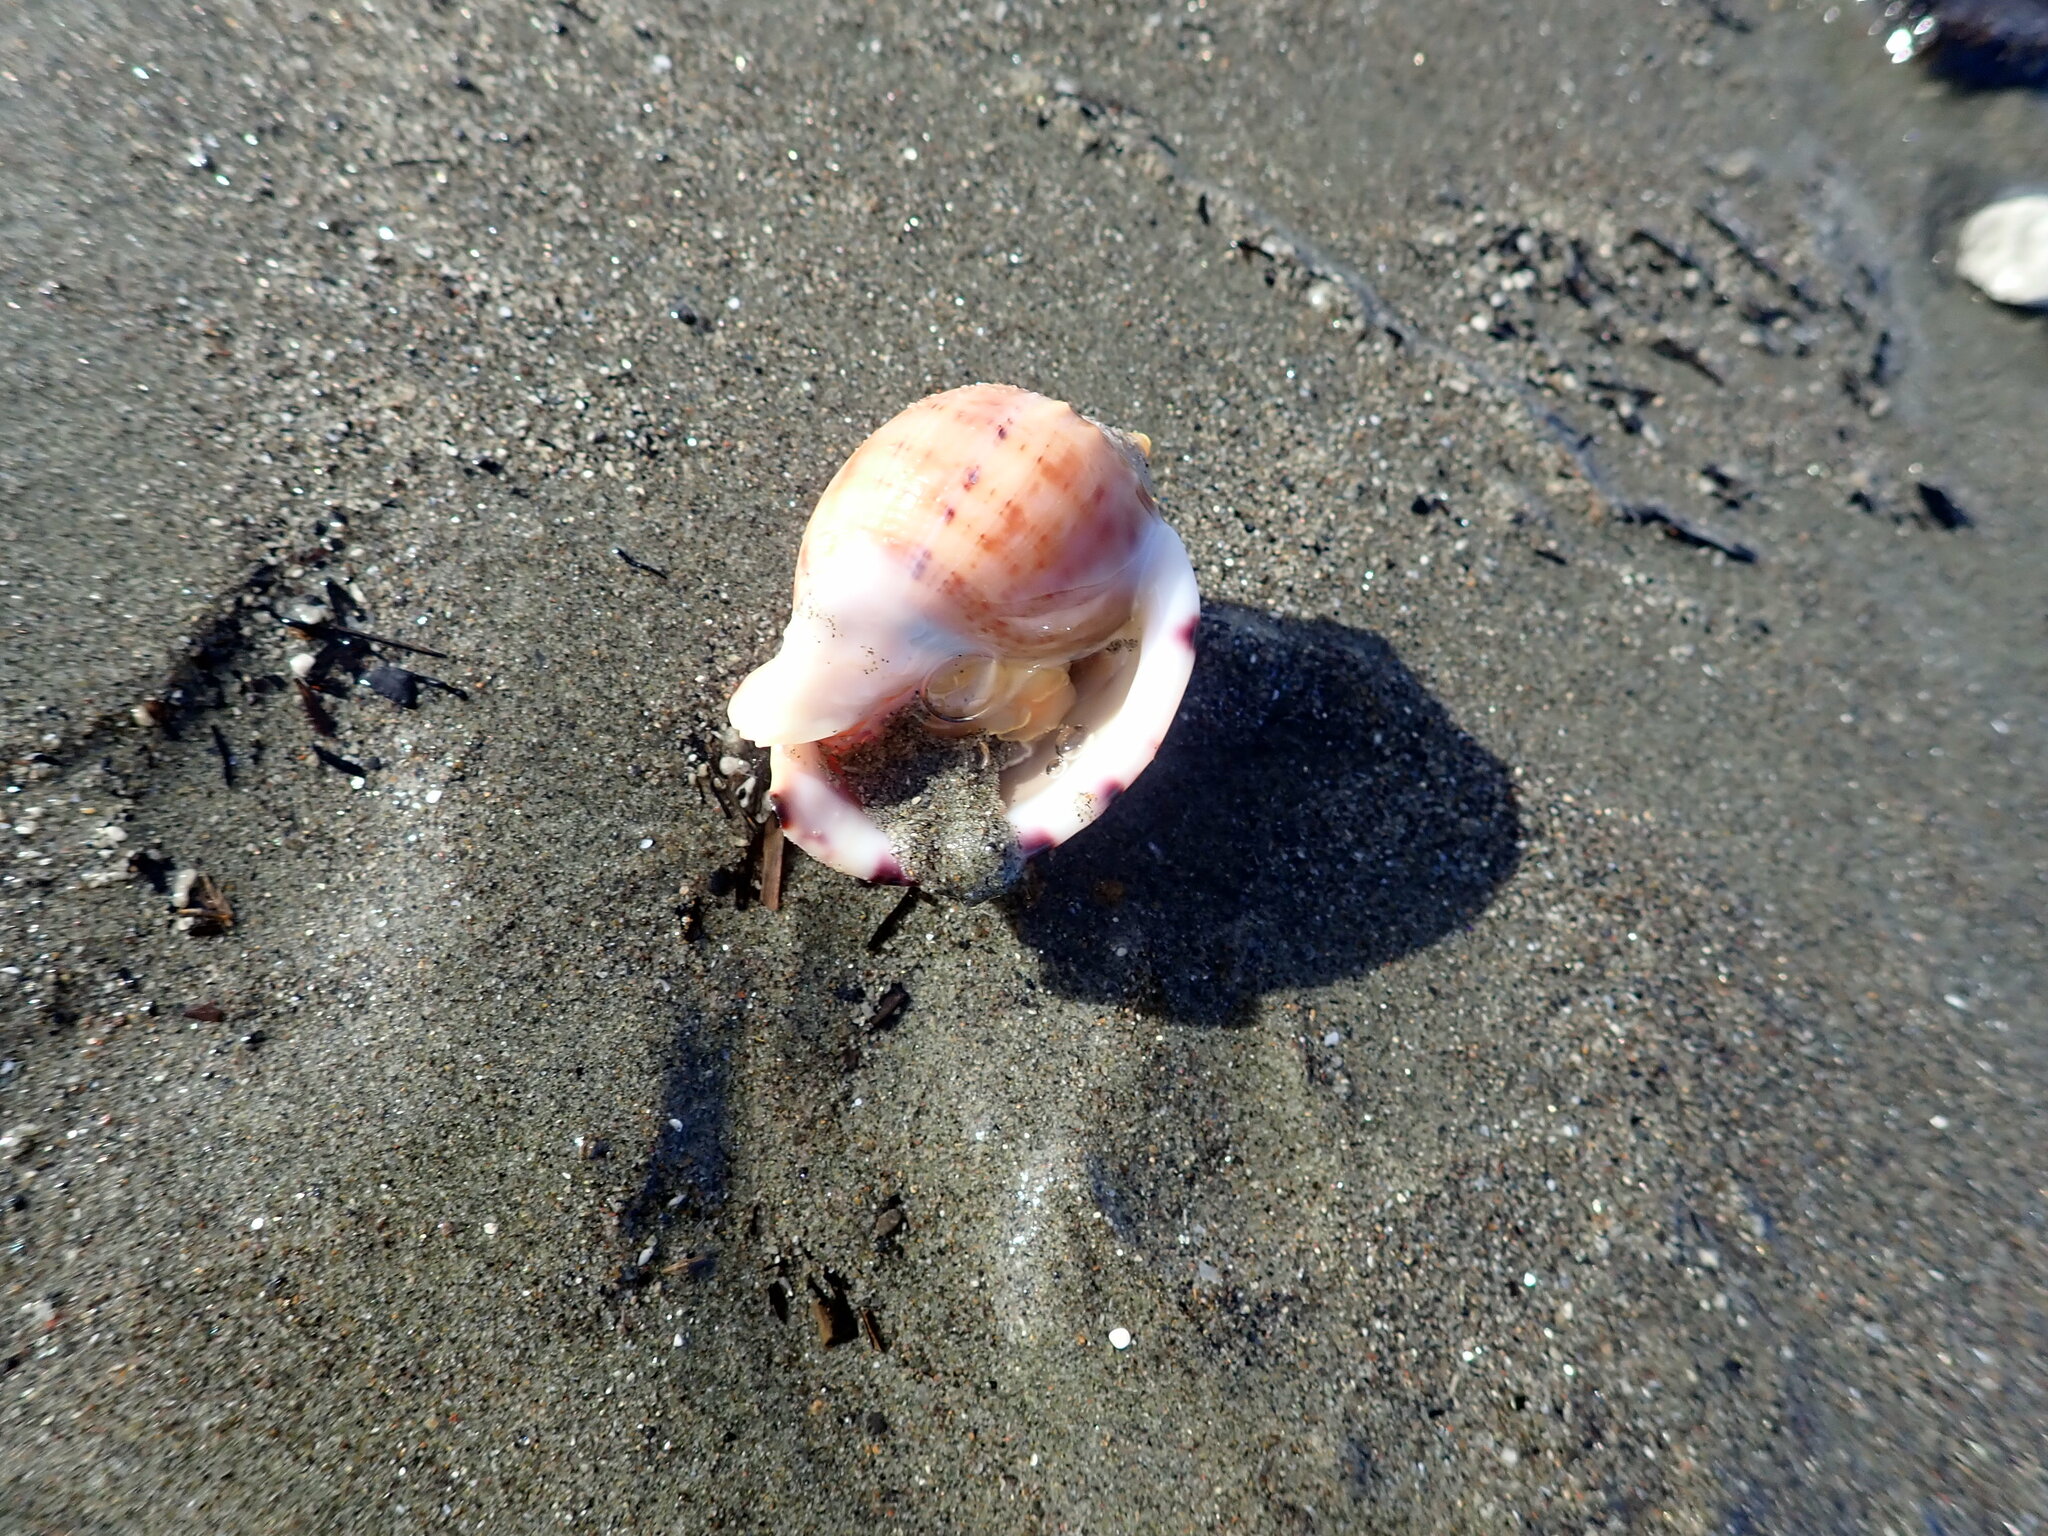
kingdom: Animalia
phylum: Mollusca
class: Gastropoda
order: Littorinimorpha
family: Cassidae
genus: Semicassis
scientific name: Semicassis pyrum
